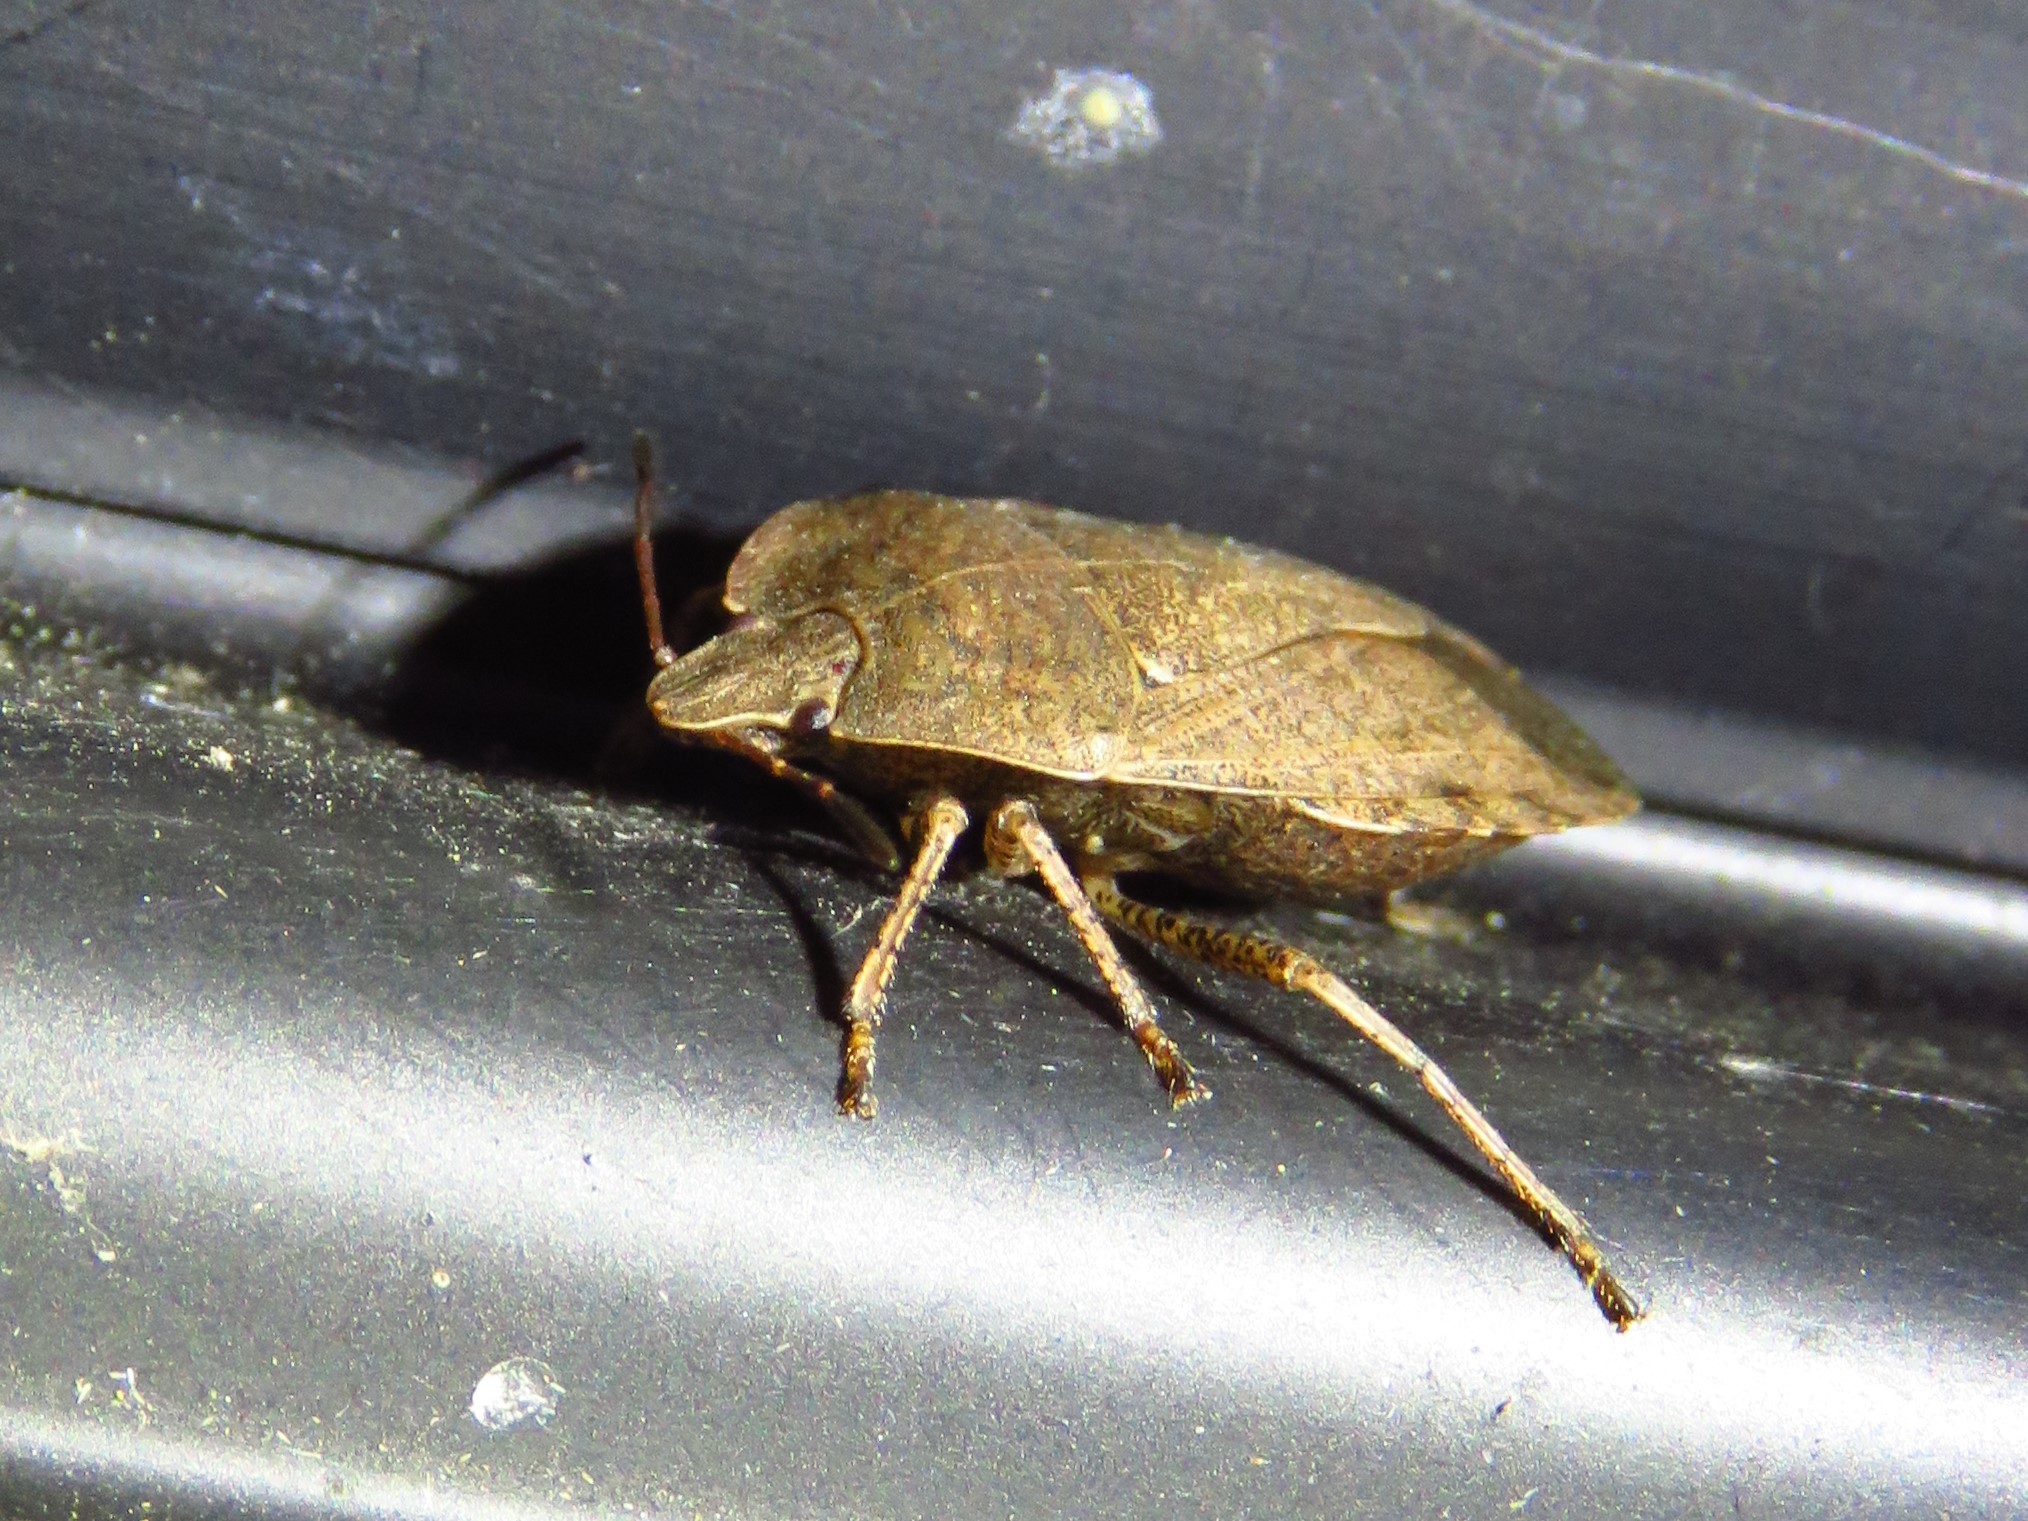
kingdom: Animalia
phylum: Arthropoda
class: Insecta
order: Hemiptera
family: Pentatomidae
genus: Menecles
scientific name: Menecles insertus
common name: Elf shoe stink bug
